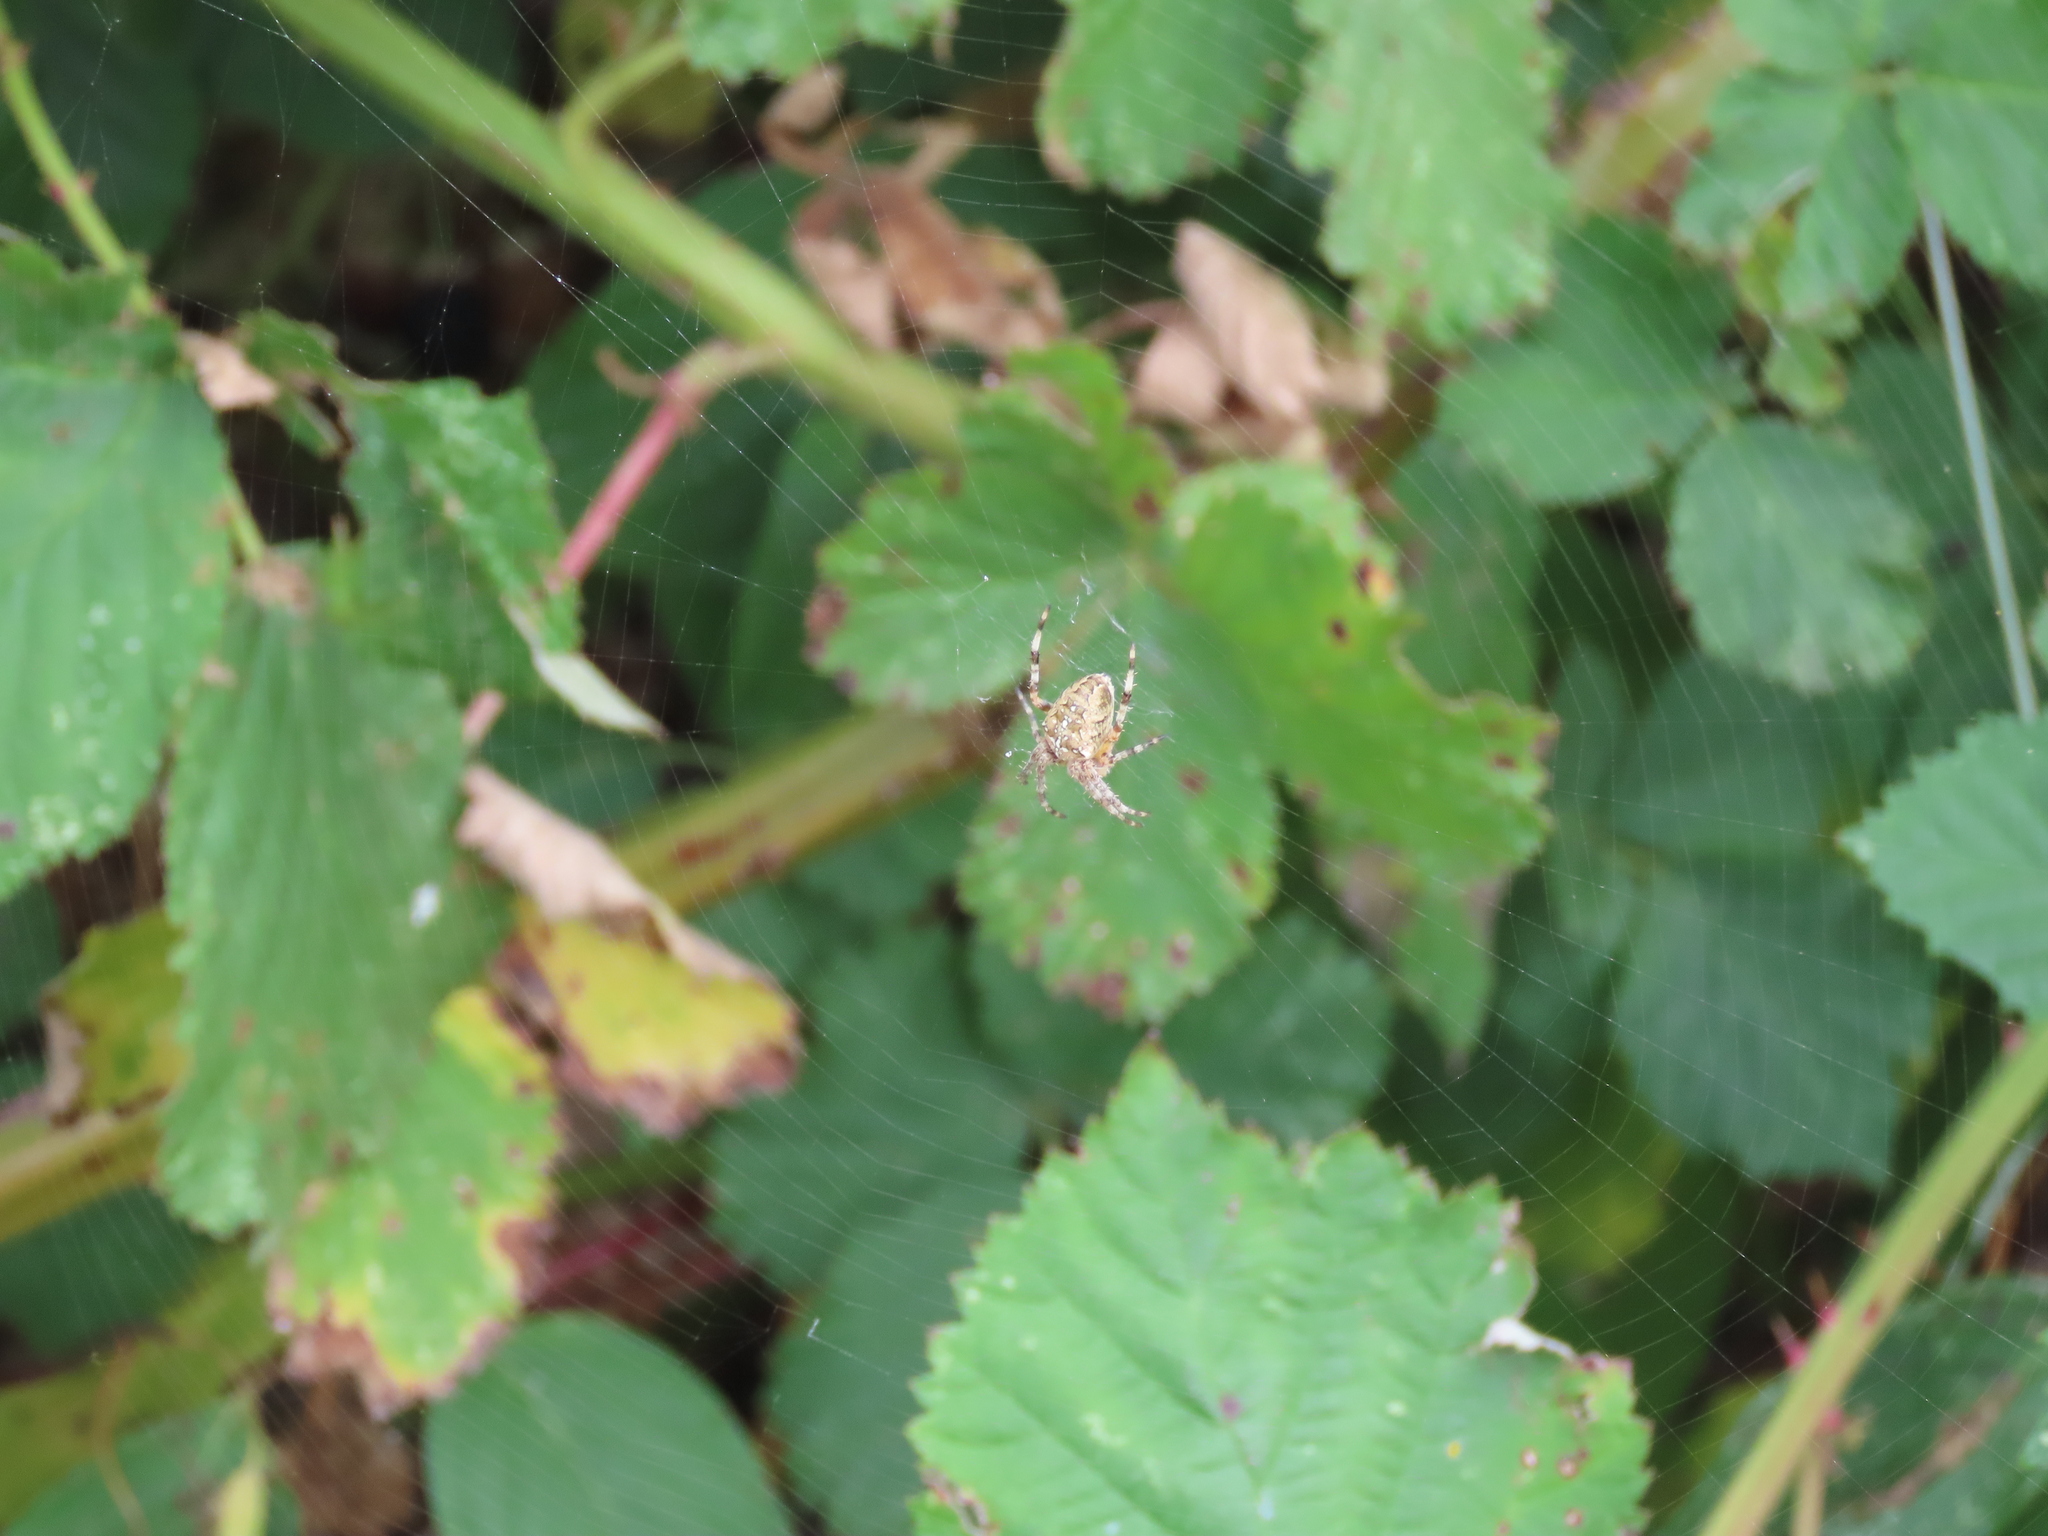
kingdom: Animalia
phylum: Arthropoda
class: Arachnida
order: Araneae
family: Araneidae
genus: Araneus
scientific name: Araneus diadematus
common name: Cross orbweaver
